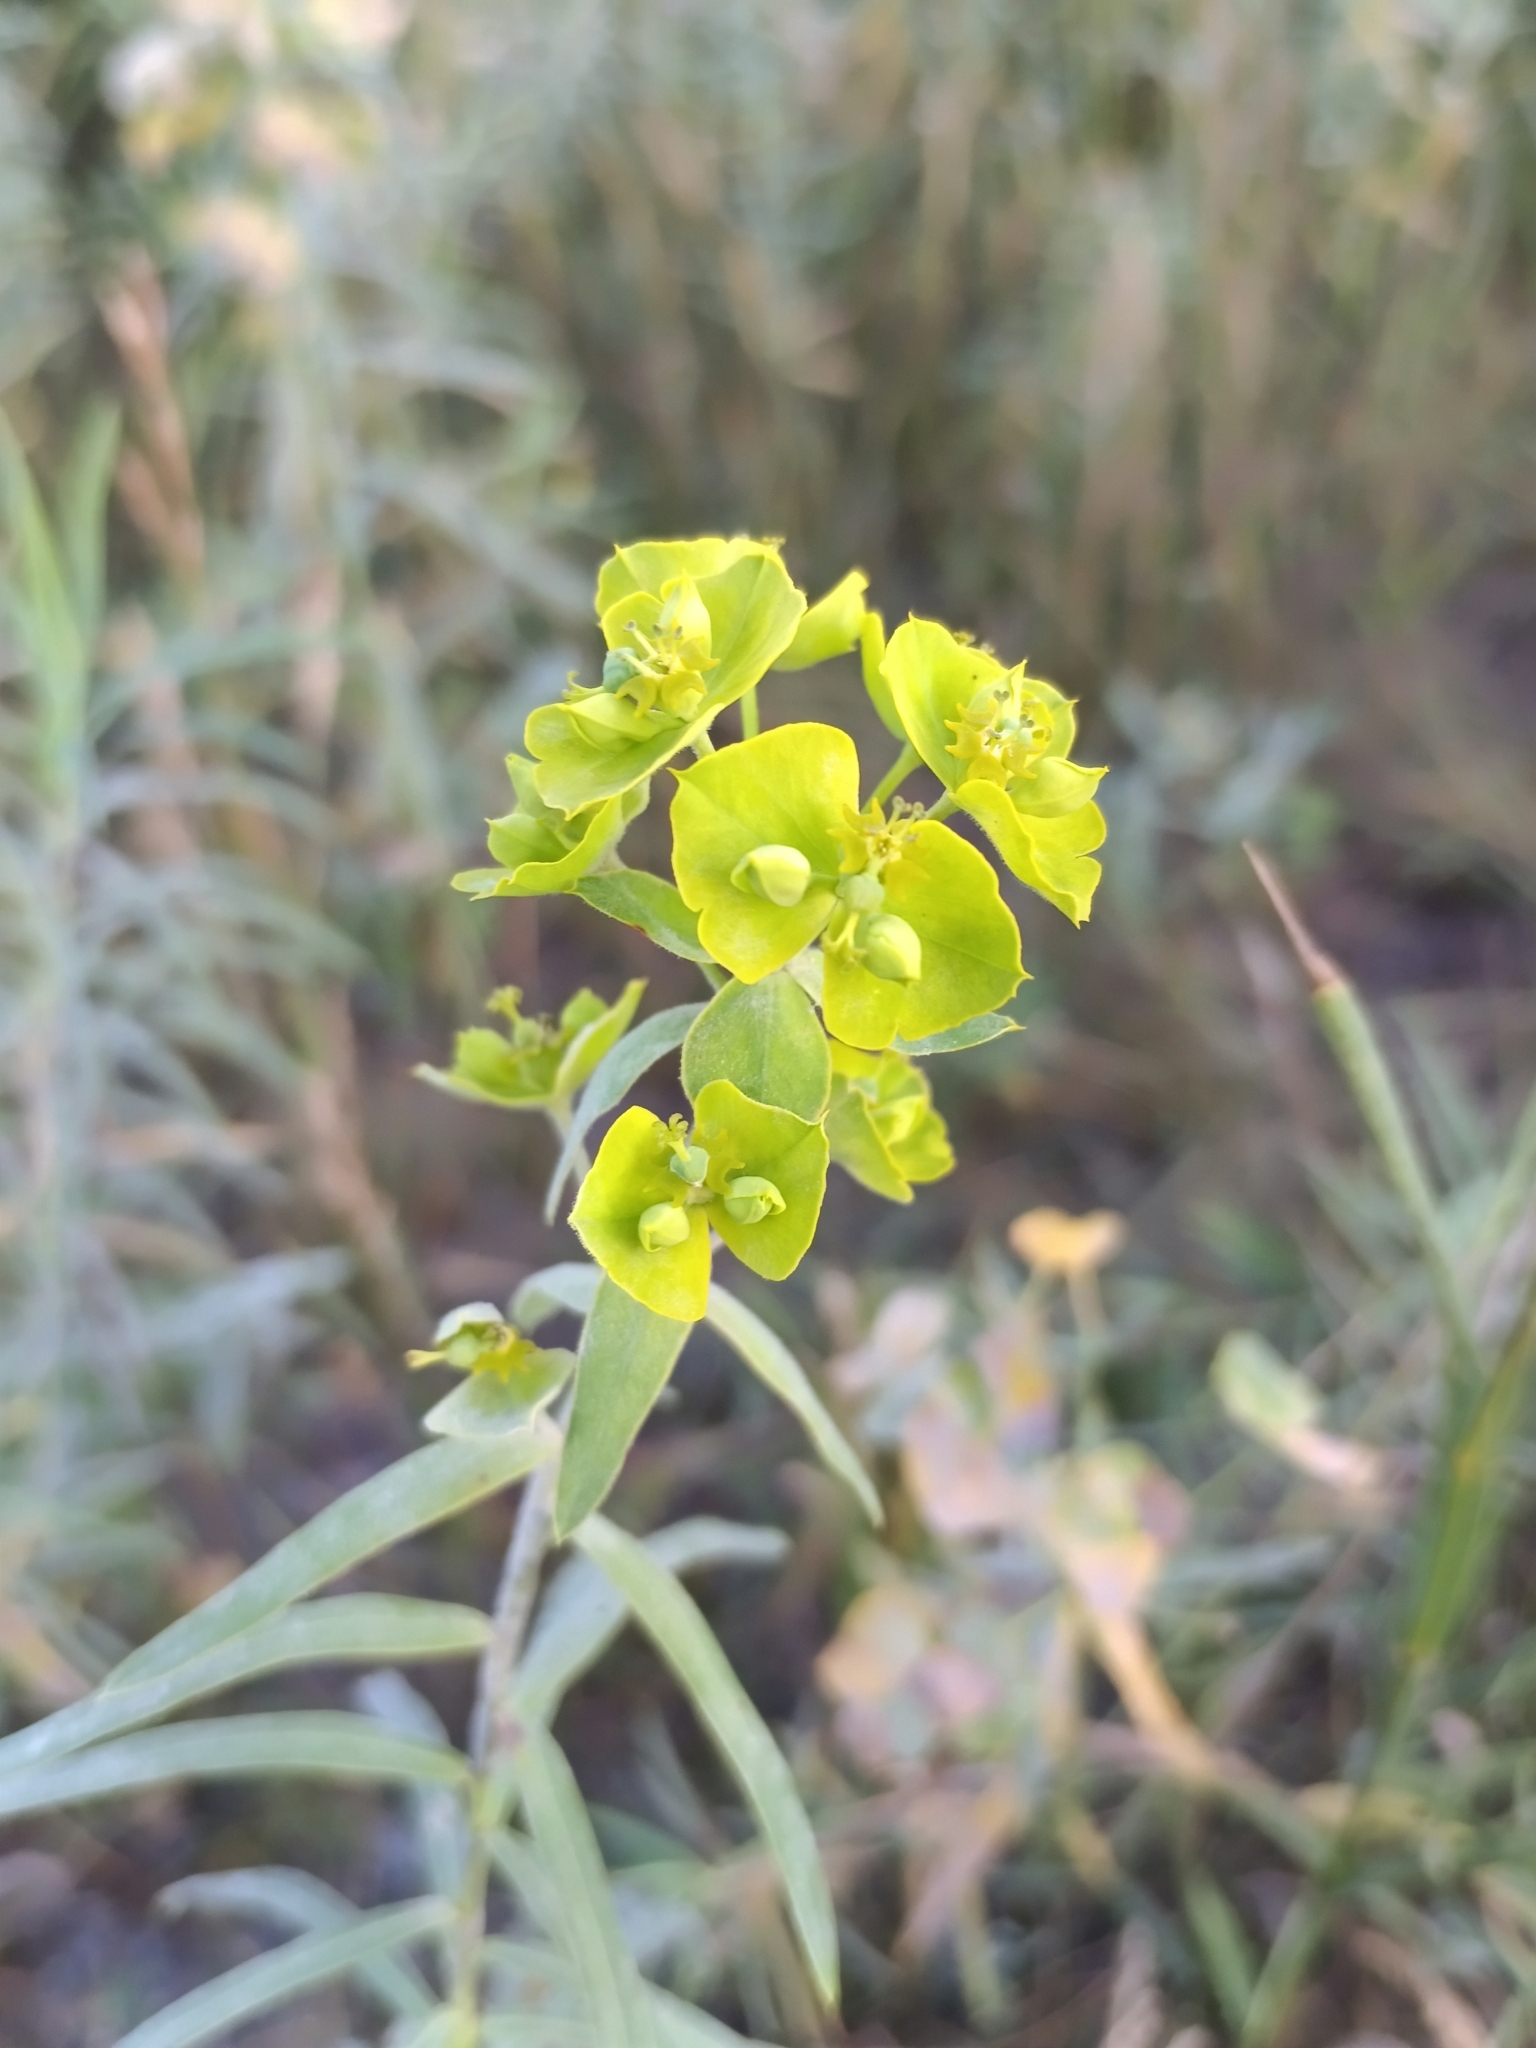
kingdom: Plantae
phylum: Tracheophyta
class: Magnoliopsida
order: Malpighiales
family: Euphorbiaceae
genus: Euphorbia
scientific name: Euphorbia virgata
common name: Leafy spurge
